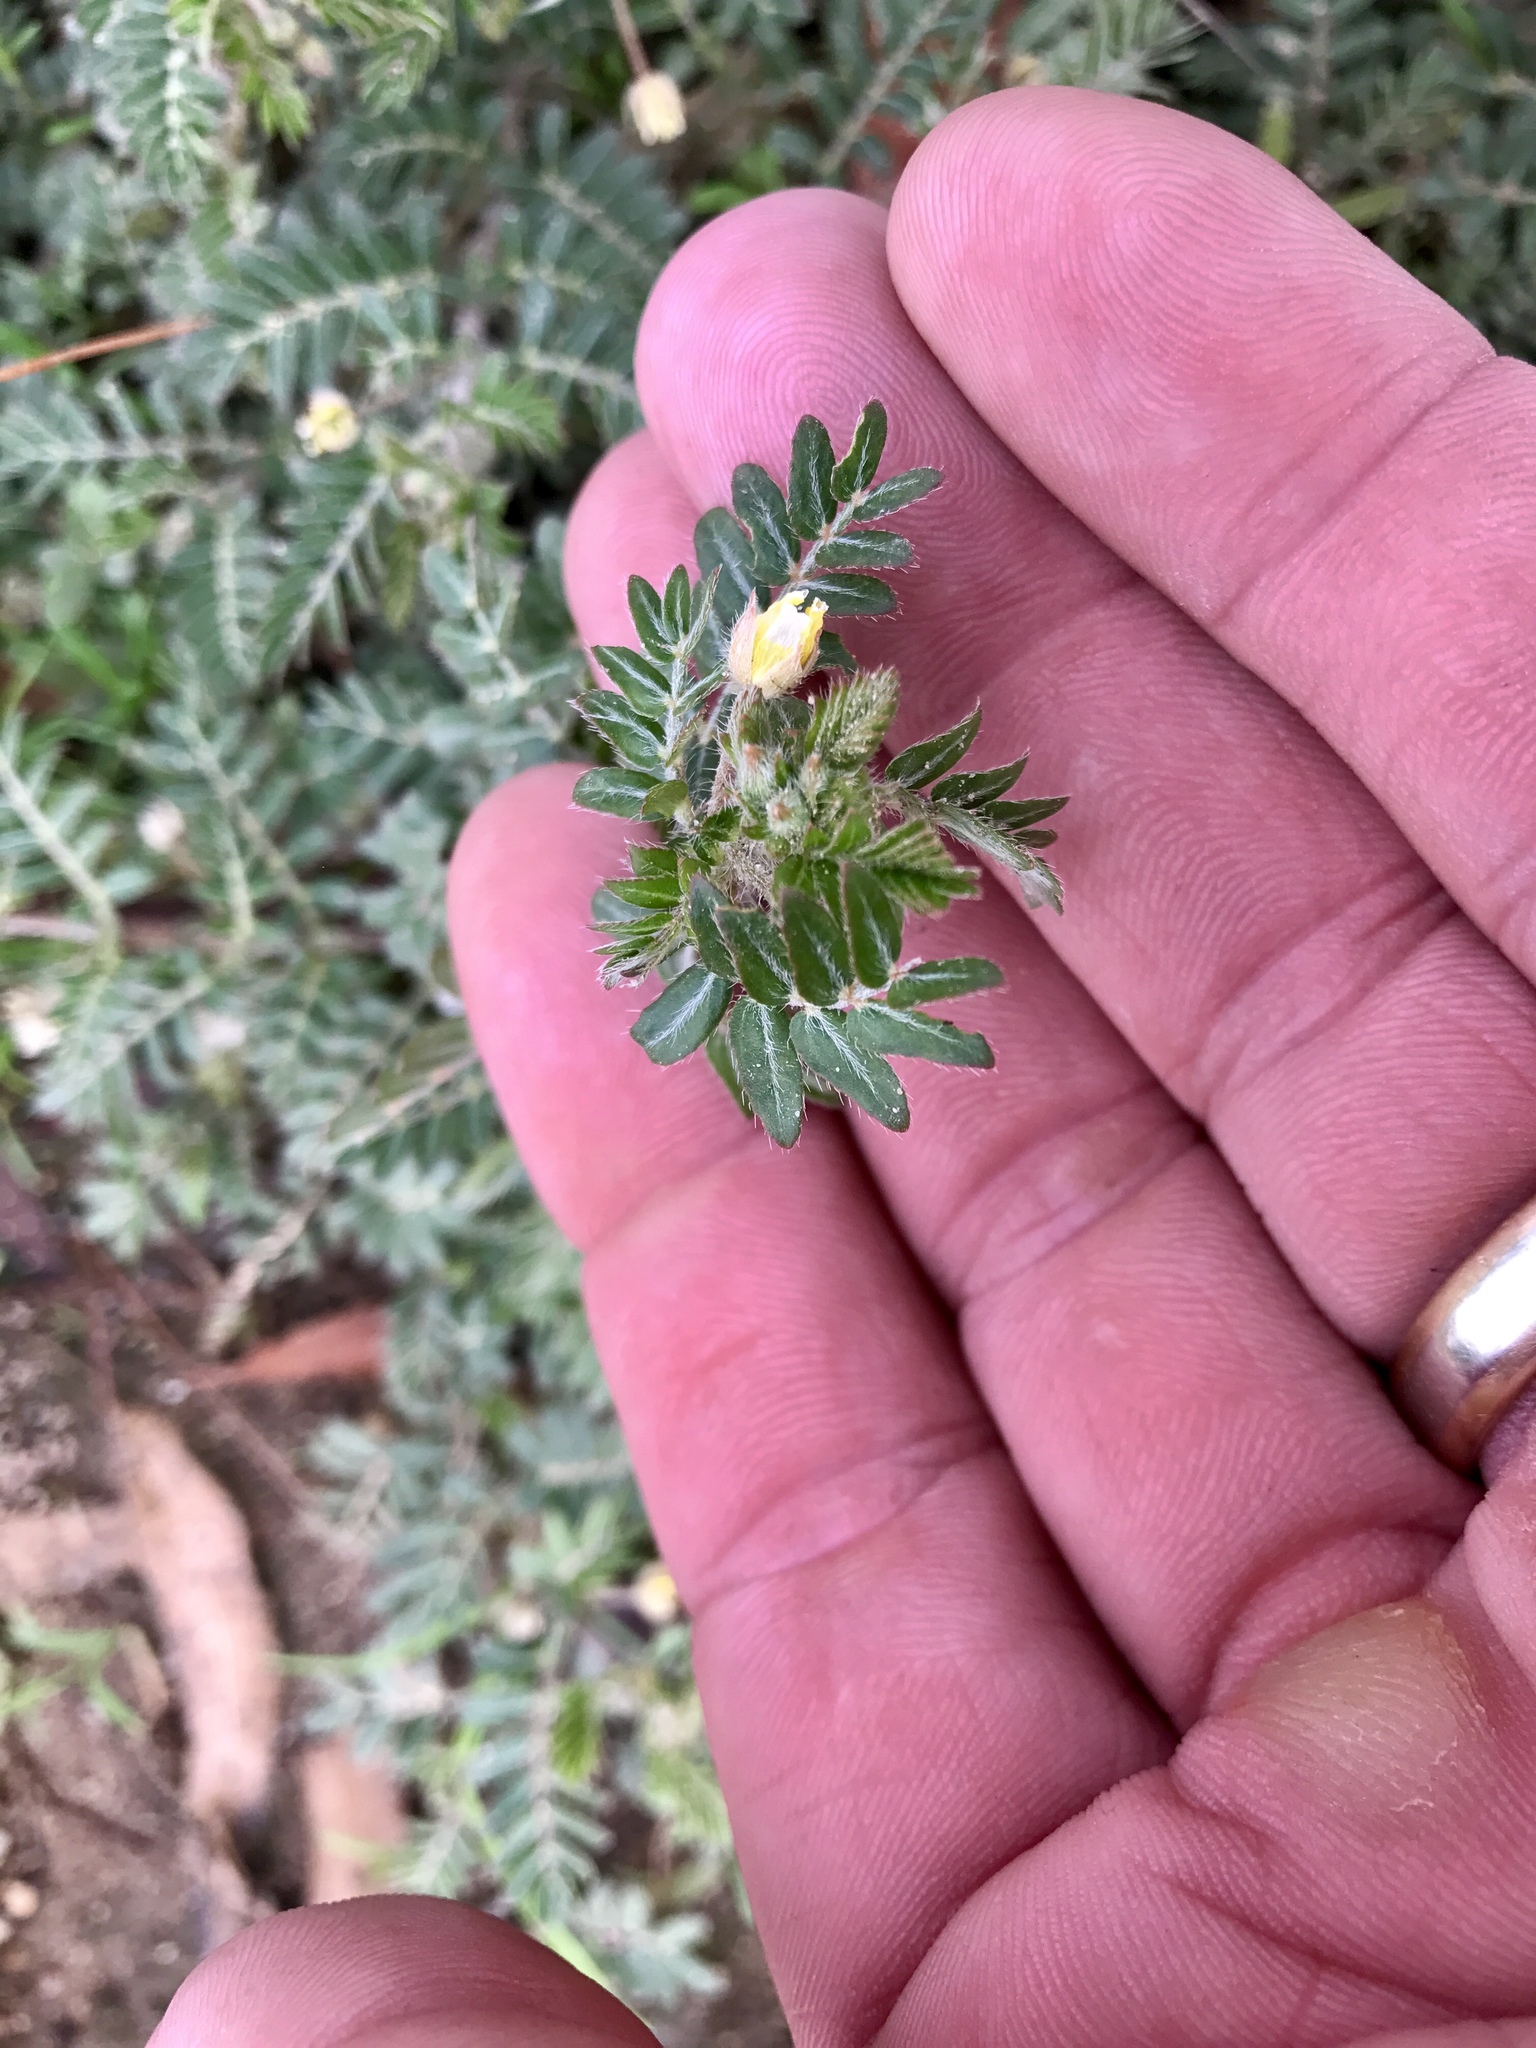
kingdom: Plantae
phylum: Tracheophyta
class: Magnoliopsida
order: Zygophyllales
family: Zygophyllaceae
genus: Tribulus
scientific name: Tribulus terrestris
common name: Puncturevine
